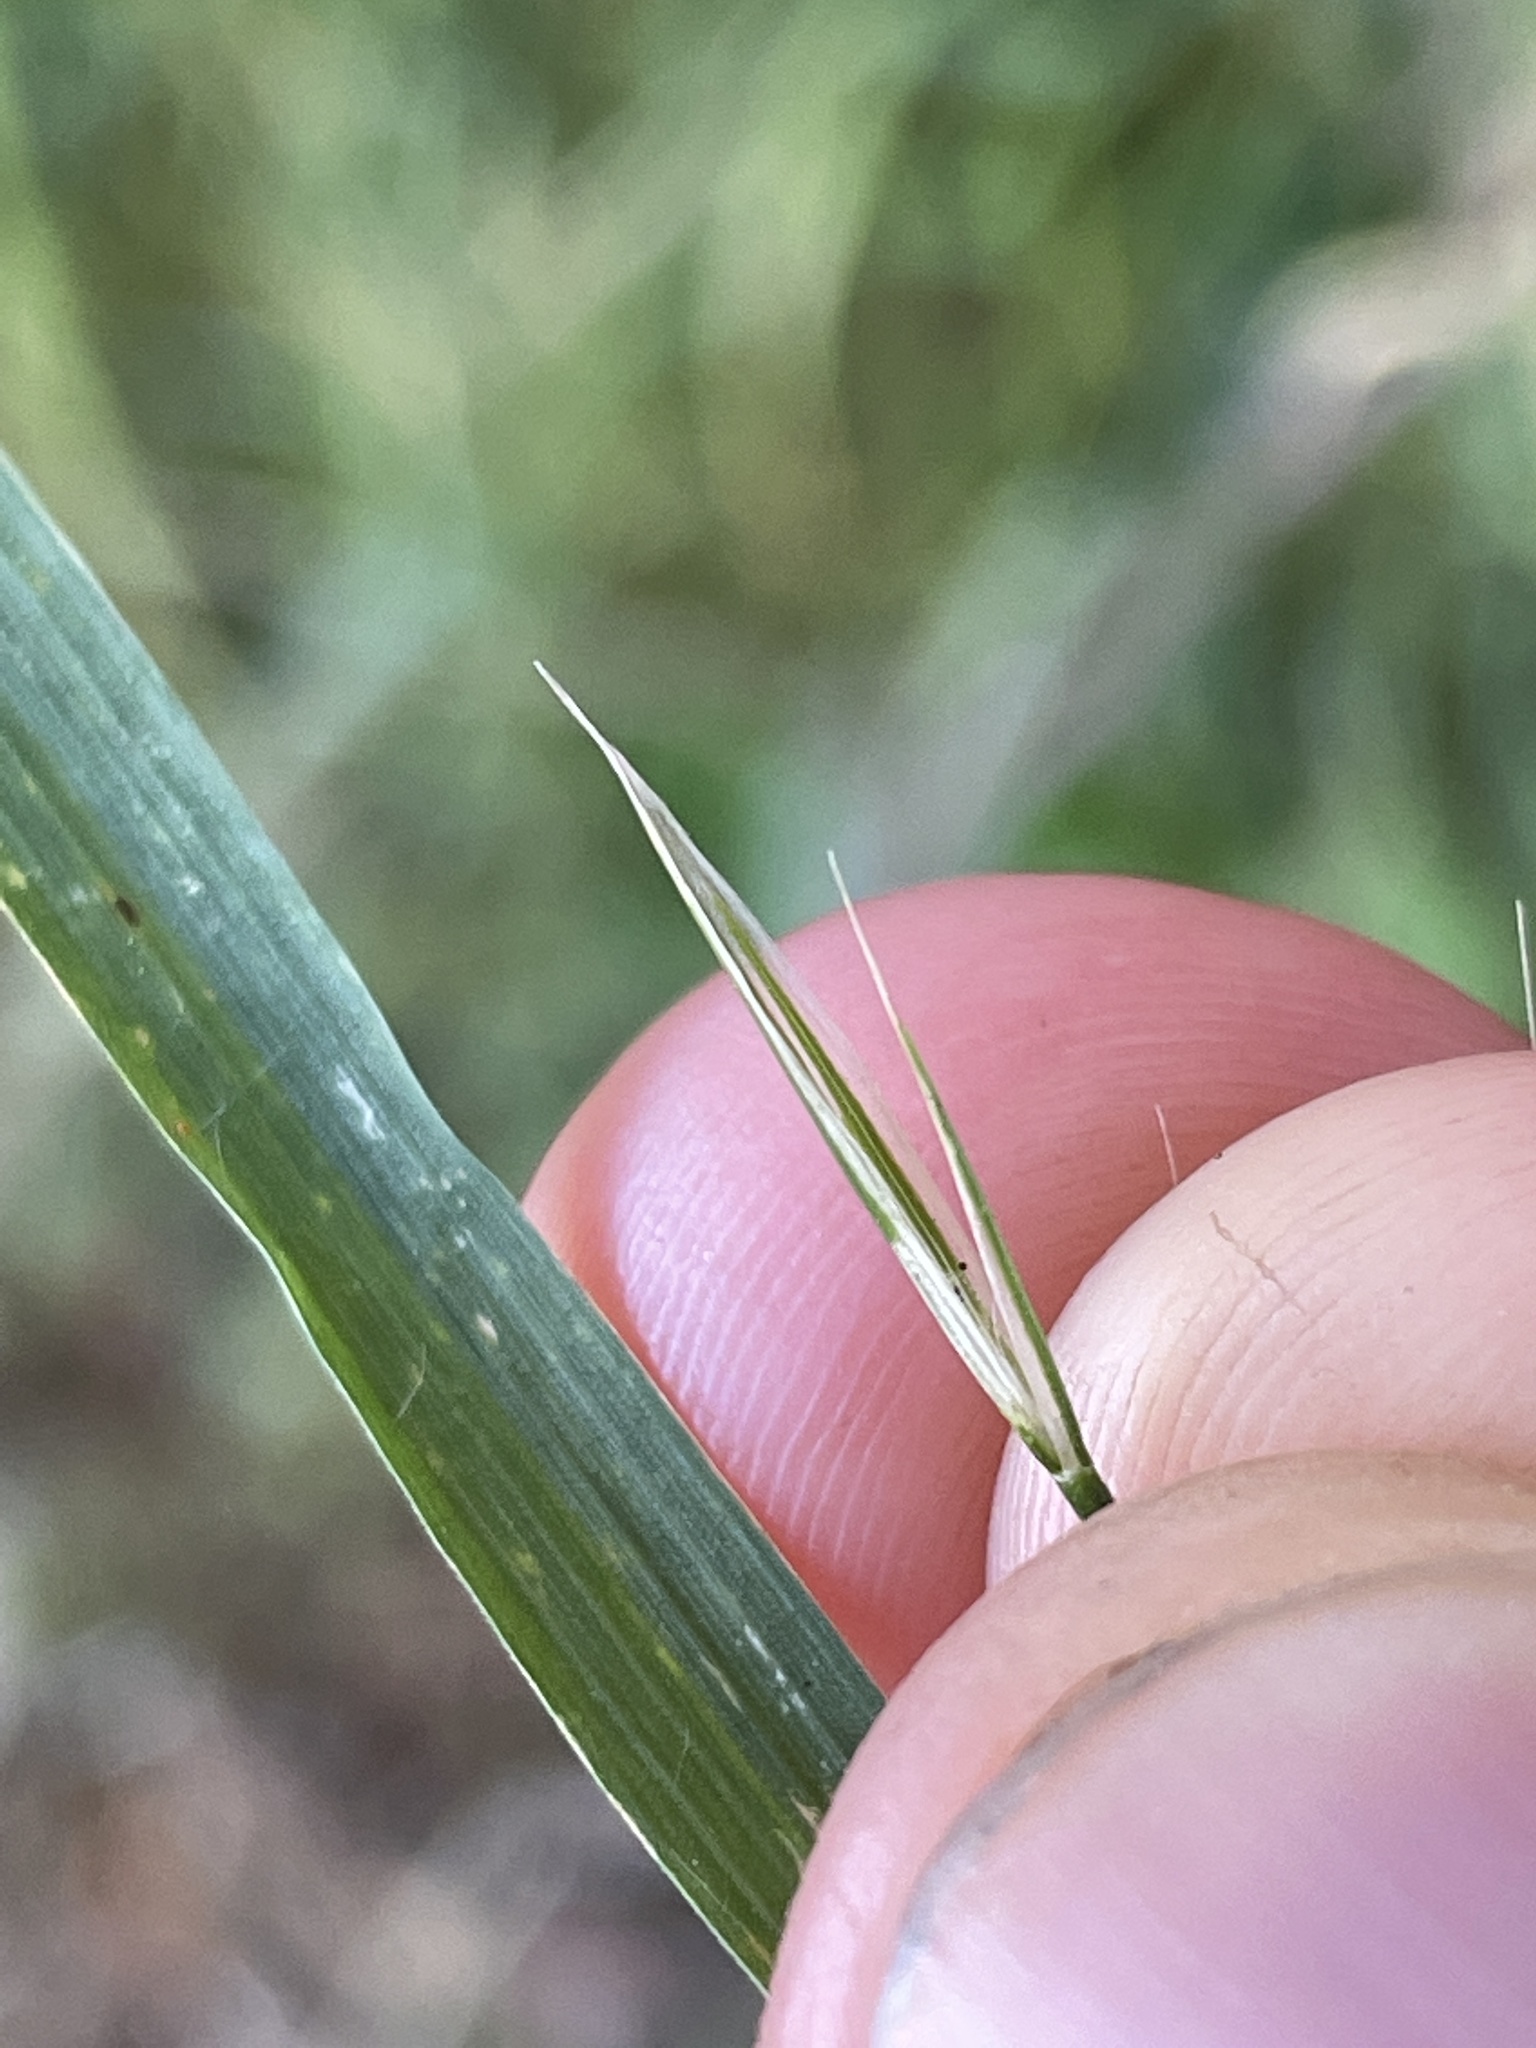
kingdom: Plantae
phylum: Tracheophyta
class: Liliopsida
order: Poales
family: Poaceae
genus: Bromus
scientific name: Bromus sterilis
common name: Poverty brome
